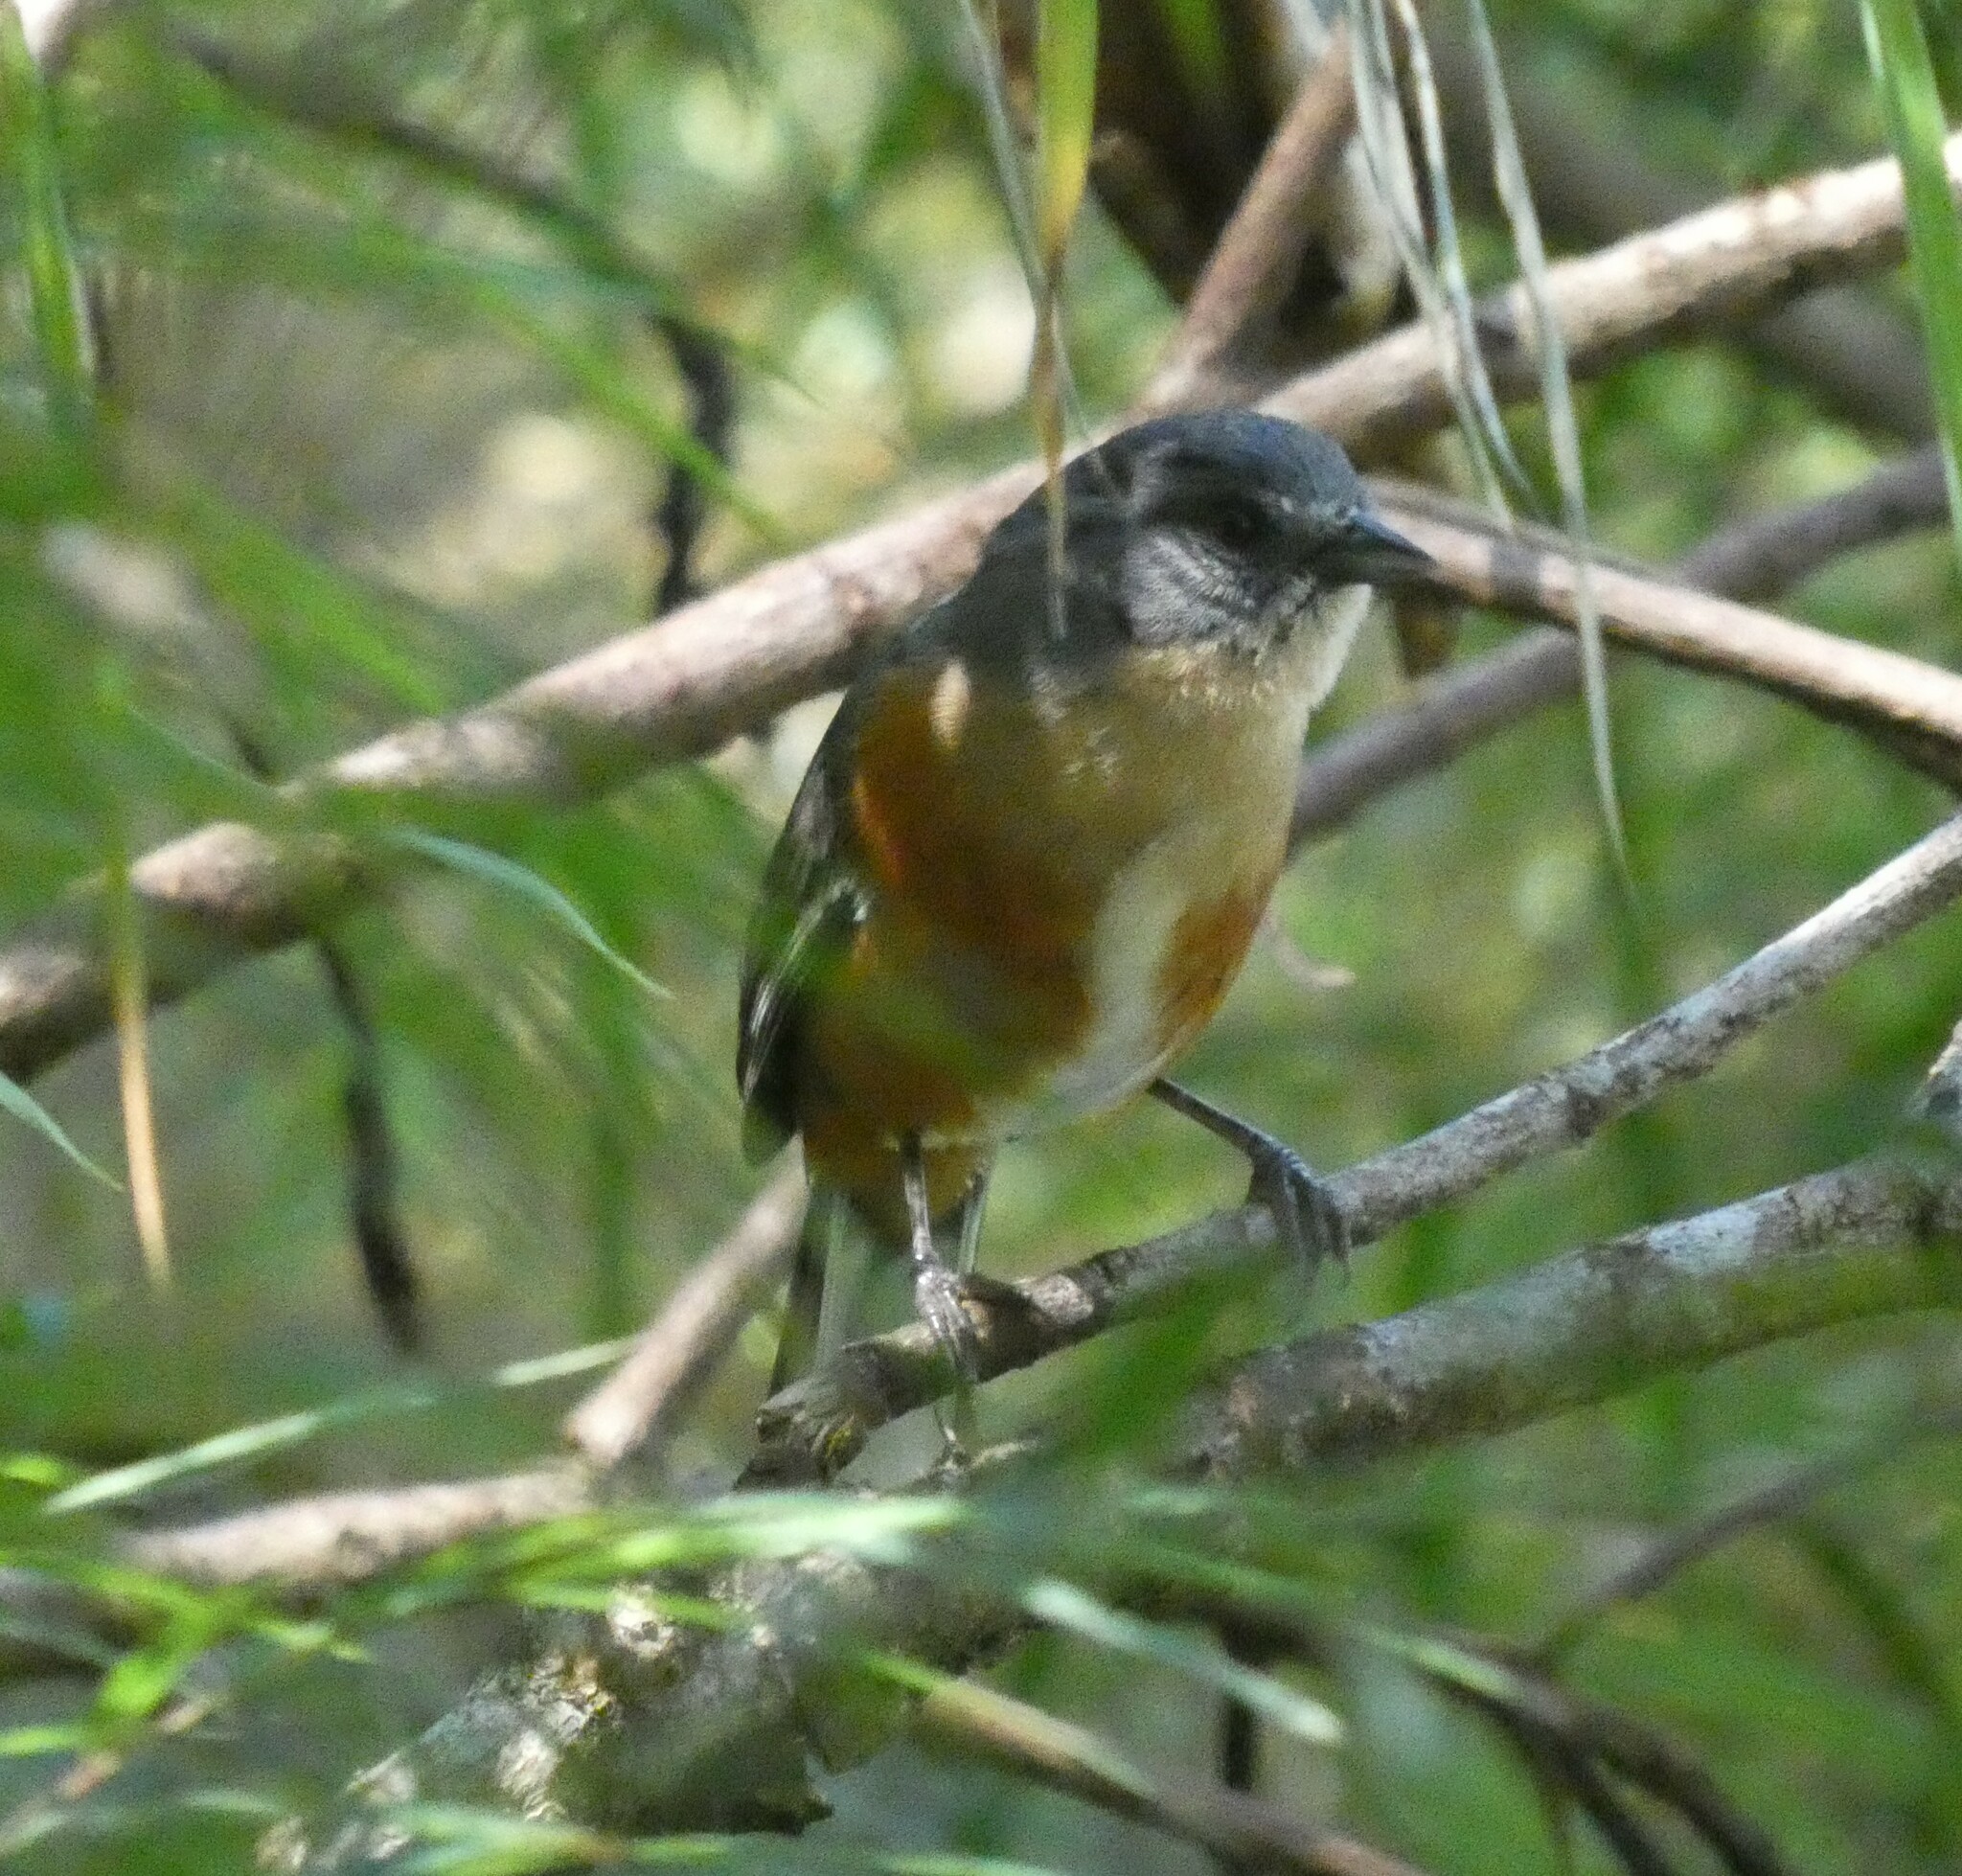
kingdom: Animalia
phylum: Chordata
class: Aves
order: Passeriformes
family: Thraupidae
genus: Microspingus
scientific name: Microspingus lateralis
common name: Buff-throated warbling-finch
